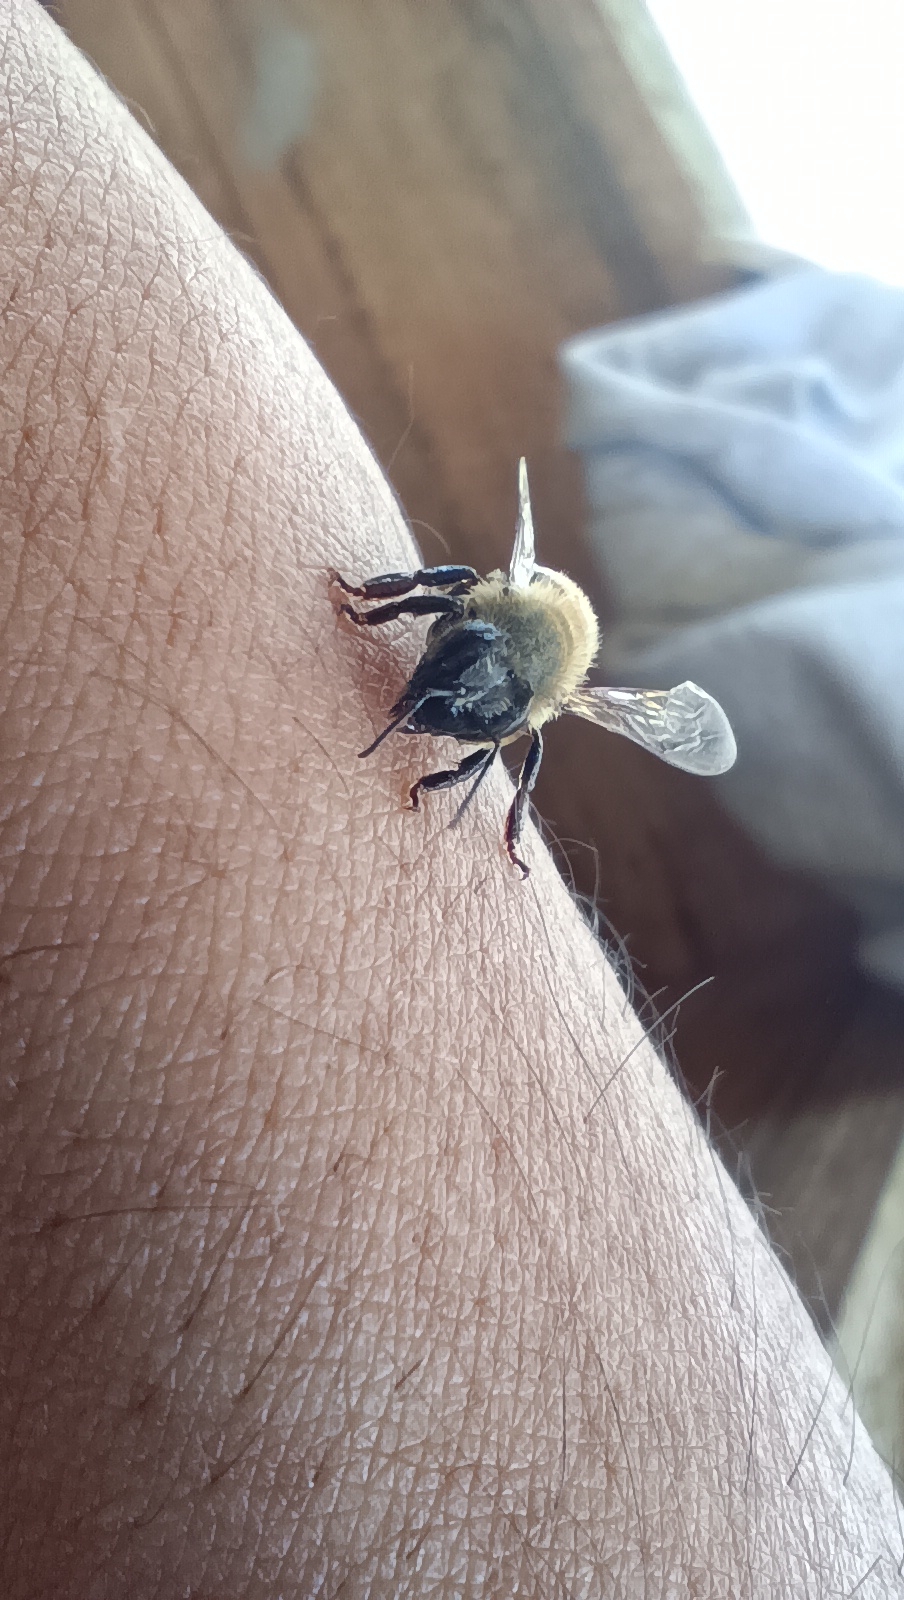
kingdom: Animalia
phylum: Arthropoda
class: Insecta
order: Hymenoptera
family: Apidae
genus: Apis
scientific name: Apis mellifera
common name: Honey bee
